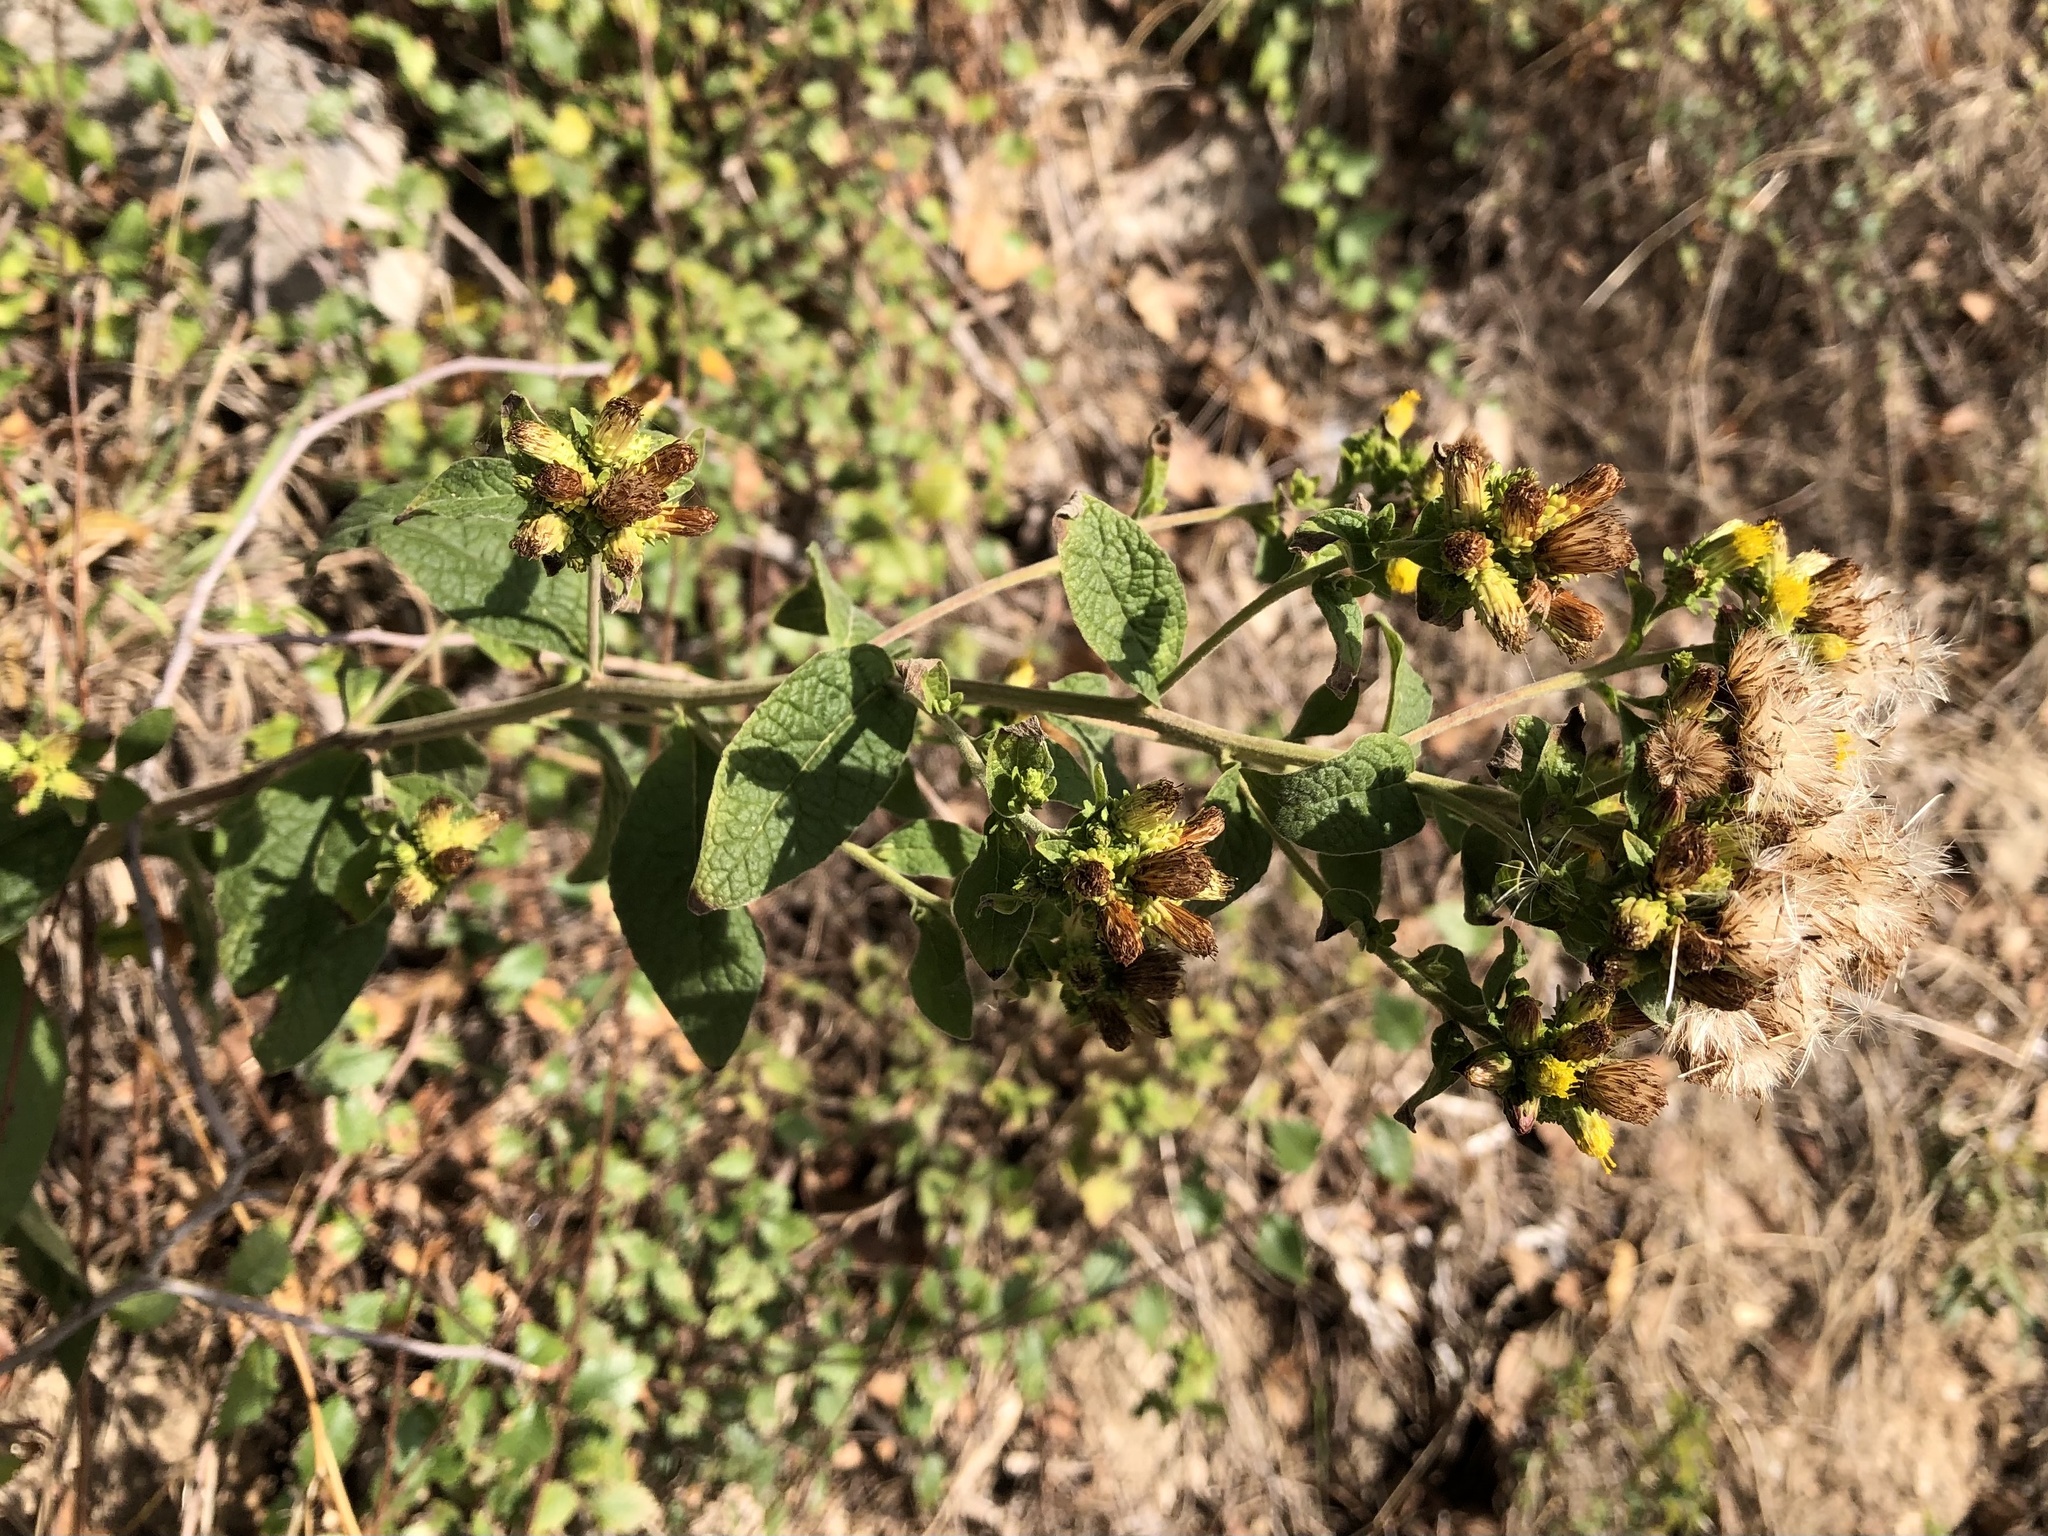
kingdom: Plantae
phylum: Tracheophyta
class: Magnoliopsida
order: Asterales
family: Asteraceae
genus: Pentanema
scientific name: Pentanema squarrosum
